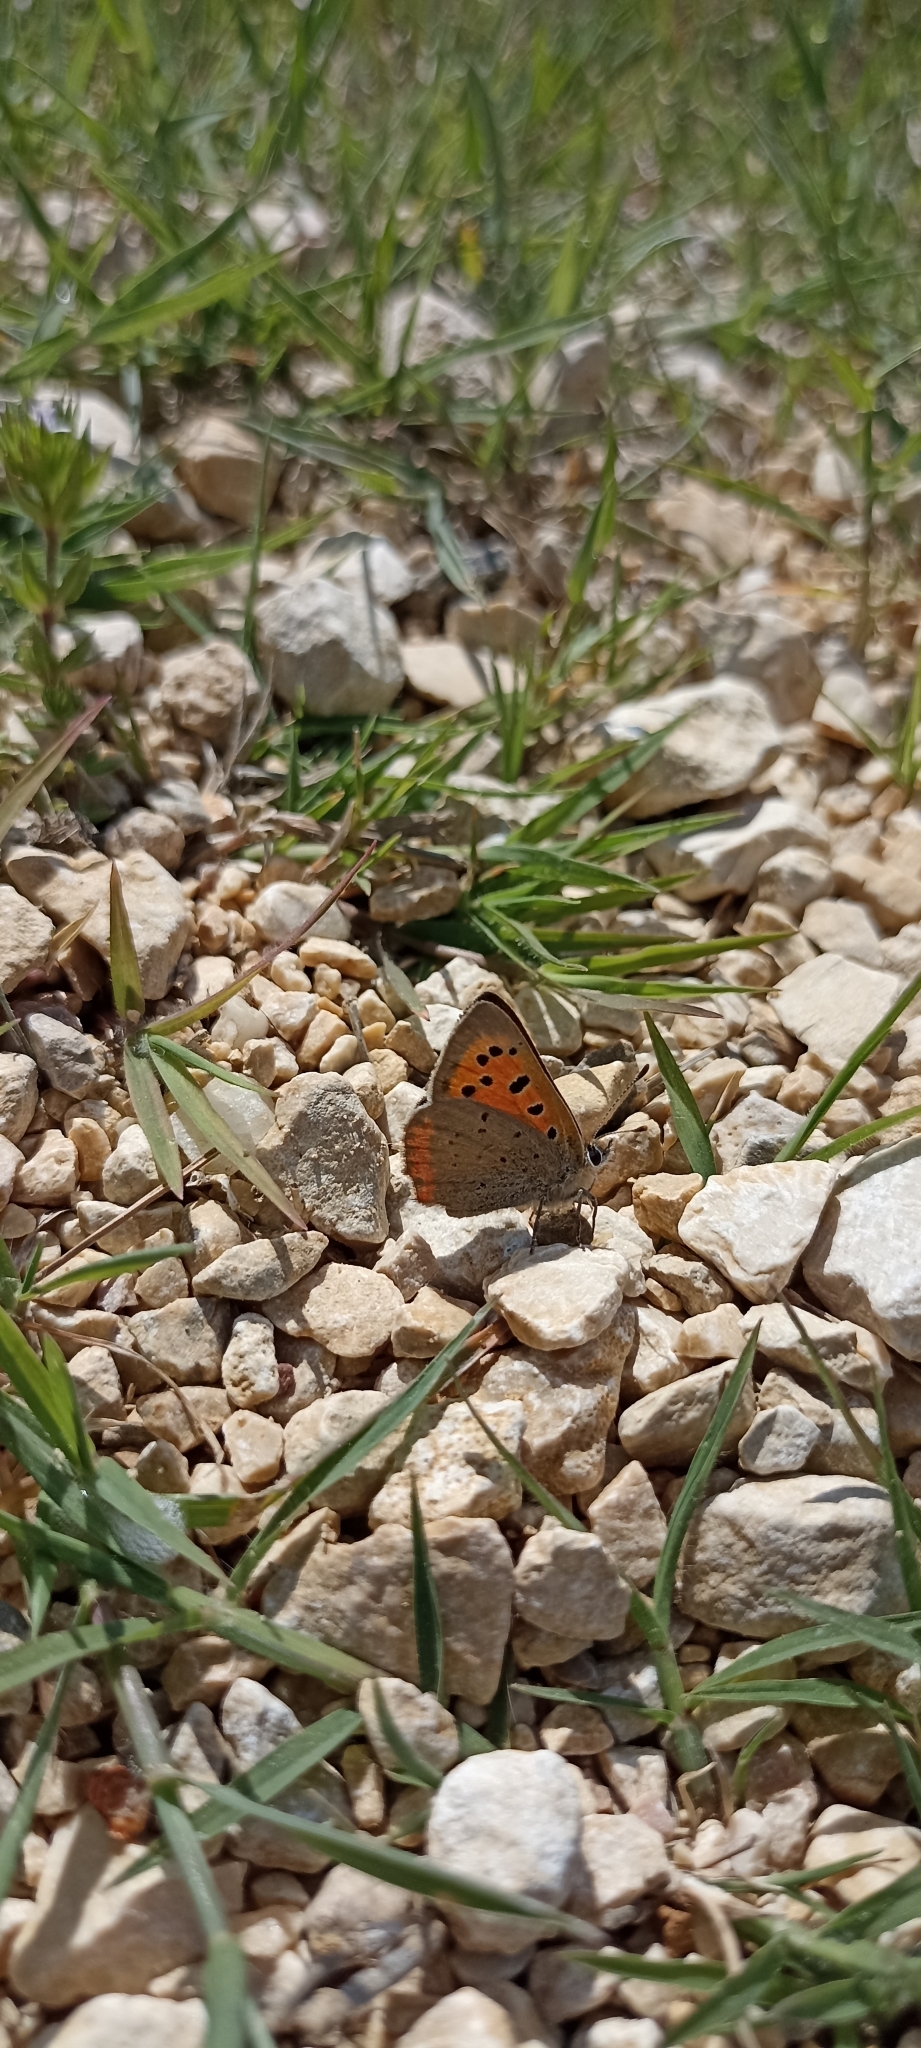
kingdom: Animalia
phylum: Arthropoda
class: Insecta
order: Lepidoptera
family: Lycaenidae
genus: Lycaena
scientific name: Lycaena phlaeas
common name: Small copper
